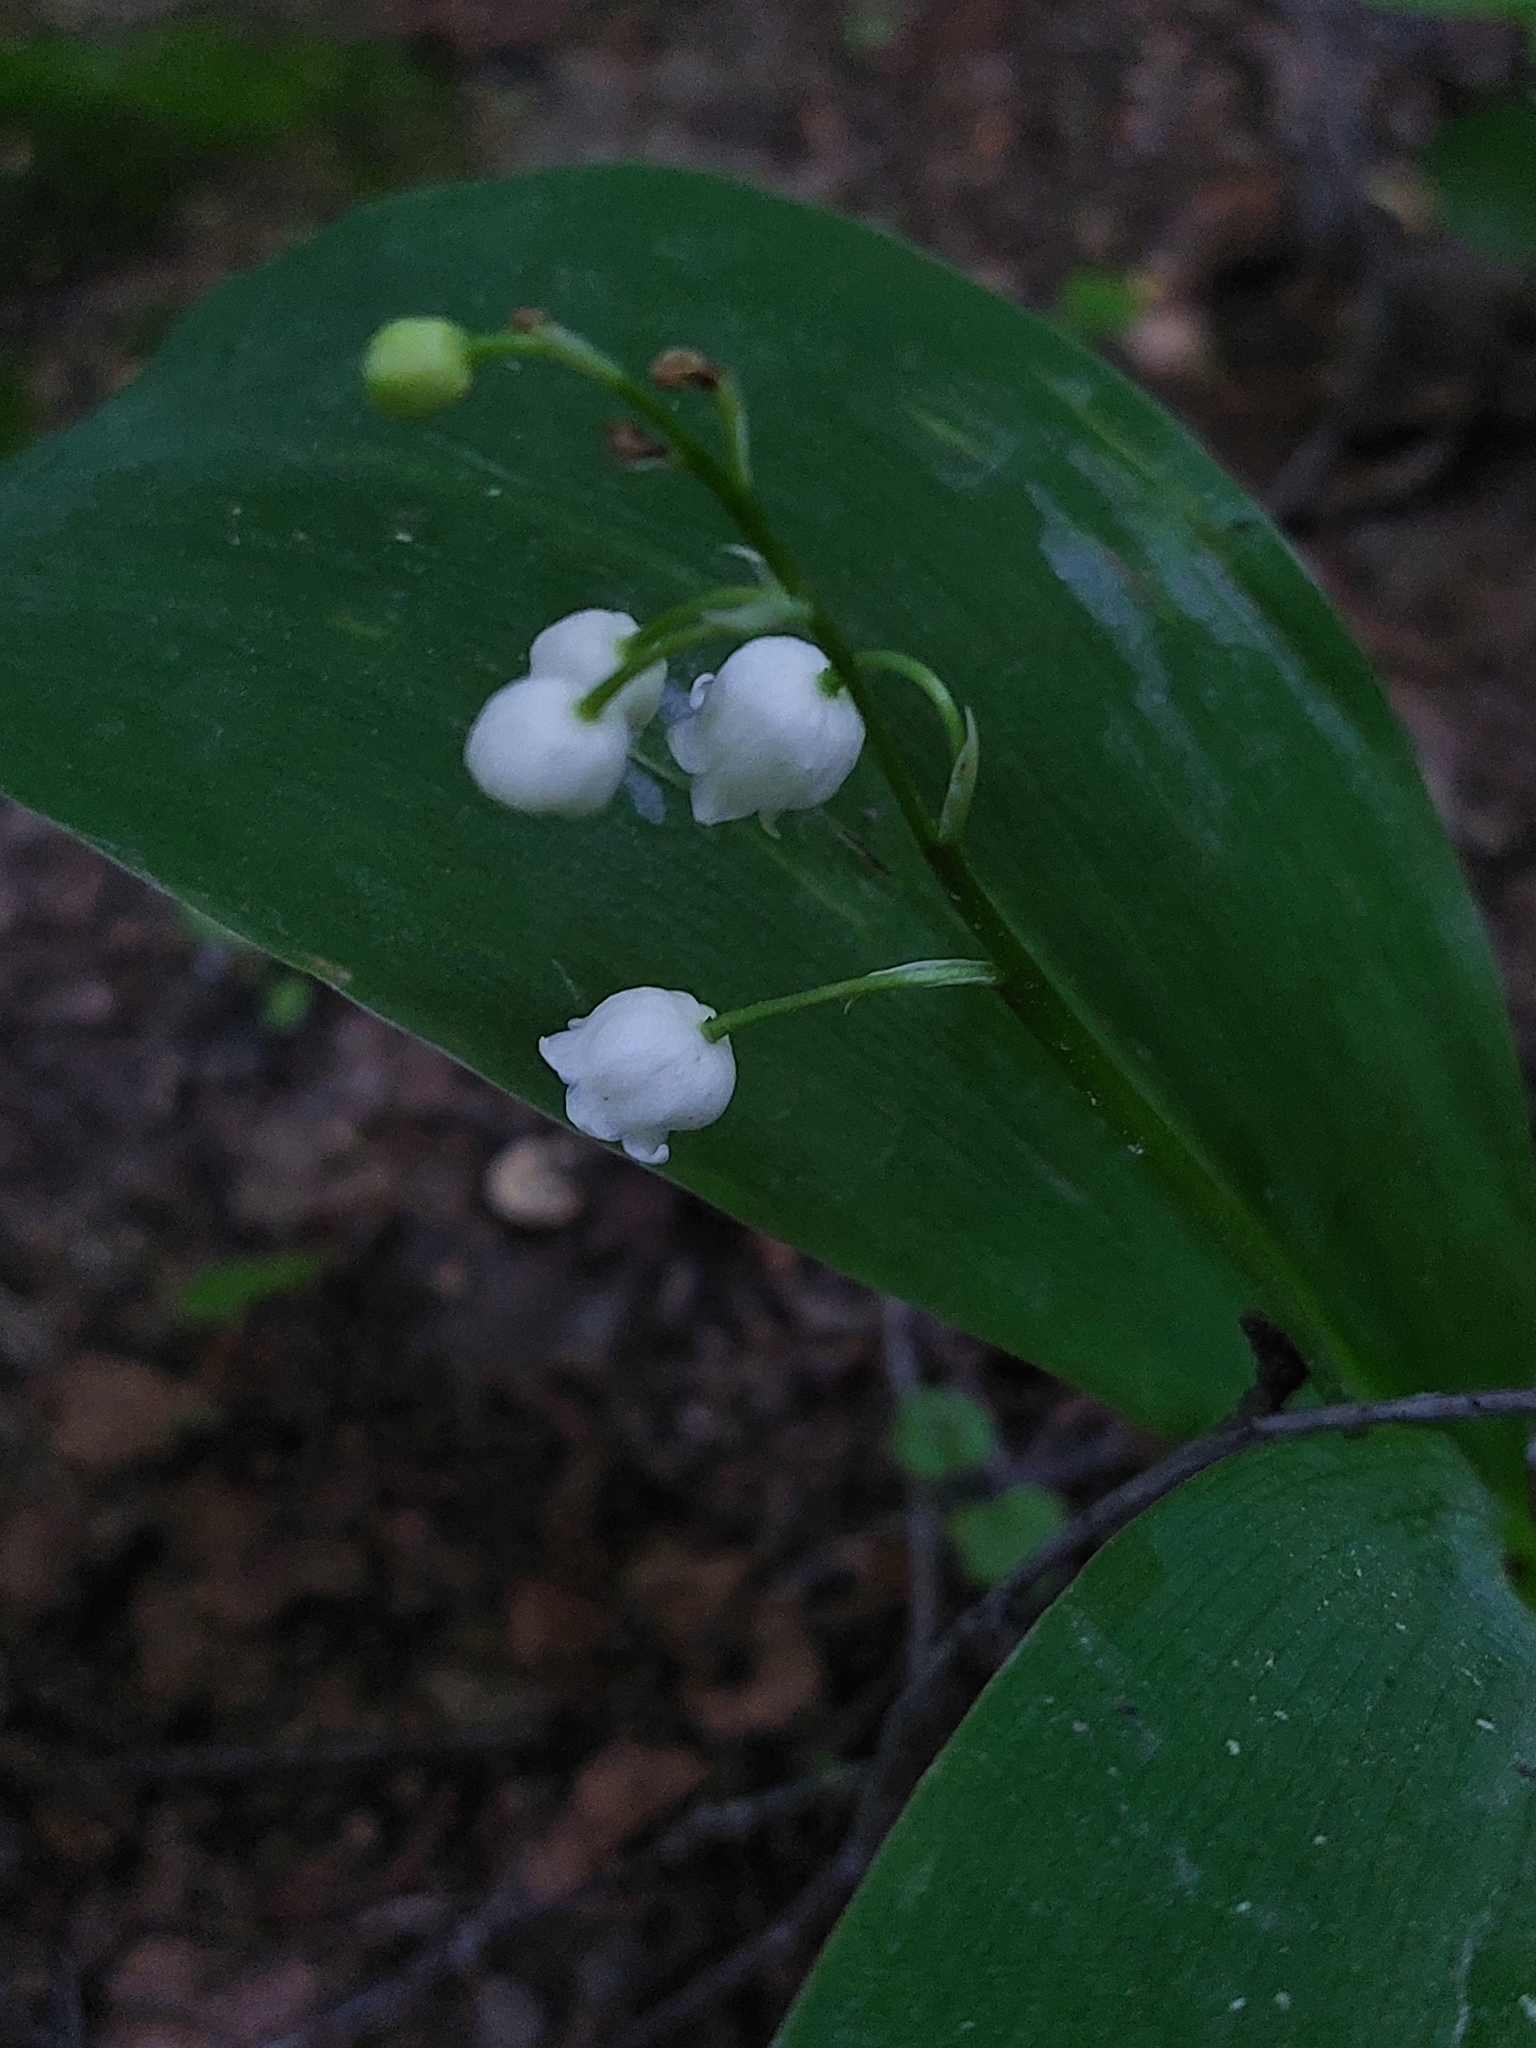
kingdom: Plantae
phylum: Tracheophyta
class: Liliopsida
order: Asparagales
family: Asparagaceae
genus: Convallaria
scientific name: Convallaria majalis
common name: Lily-of-the-valley
